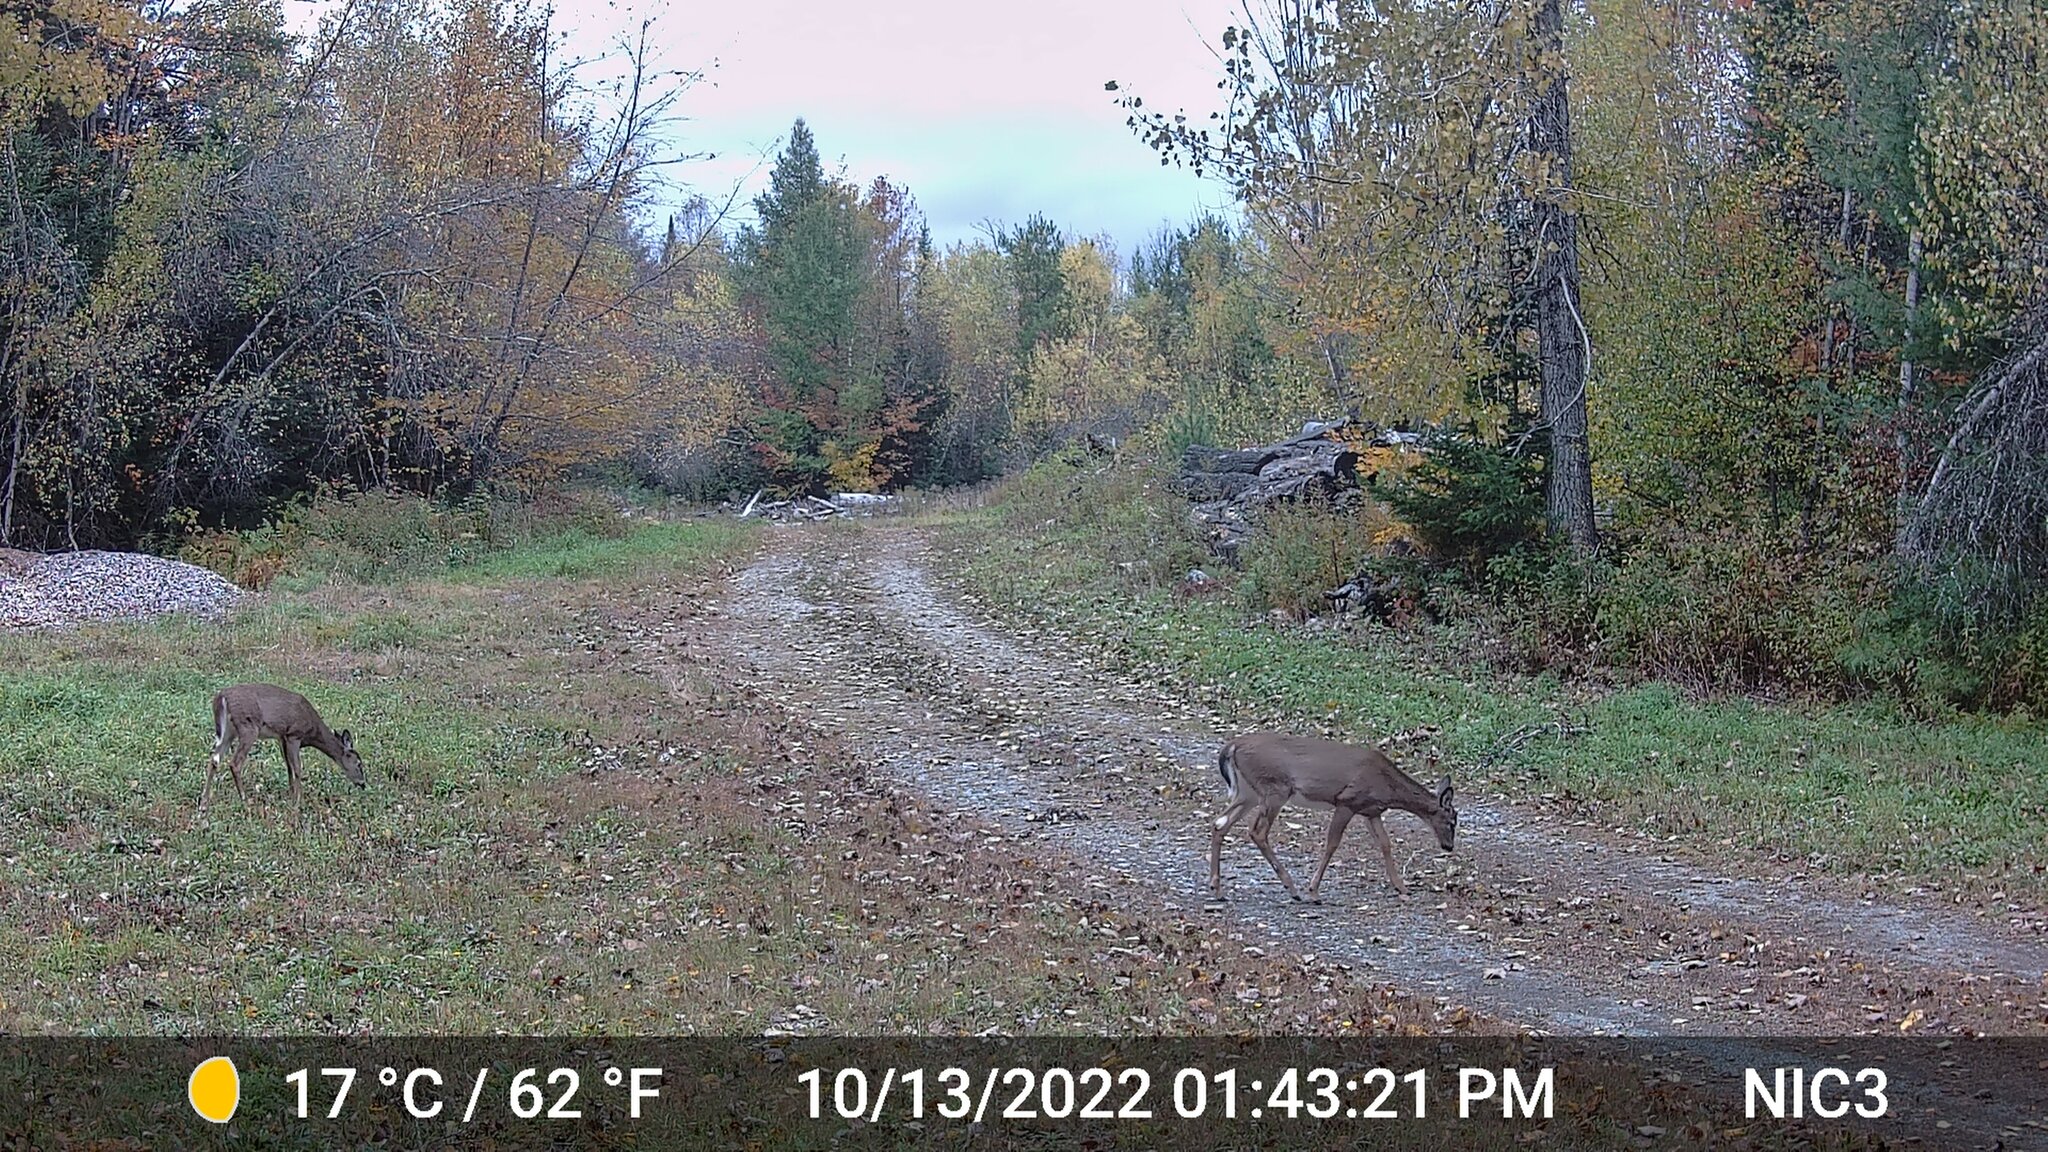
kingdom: Animalia
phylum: Chordata
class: Mammalia
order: Artiodactyla
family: Cervidae
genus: Odocoileus
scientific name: Odocoileus virginianus
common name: White-tailed deer
